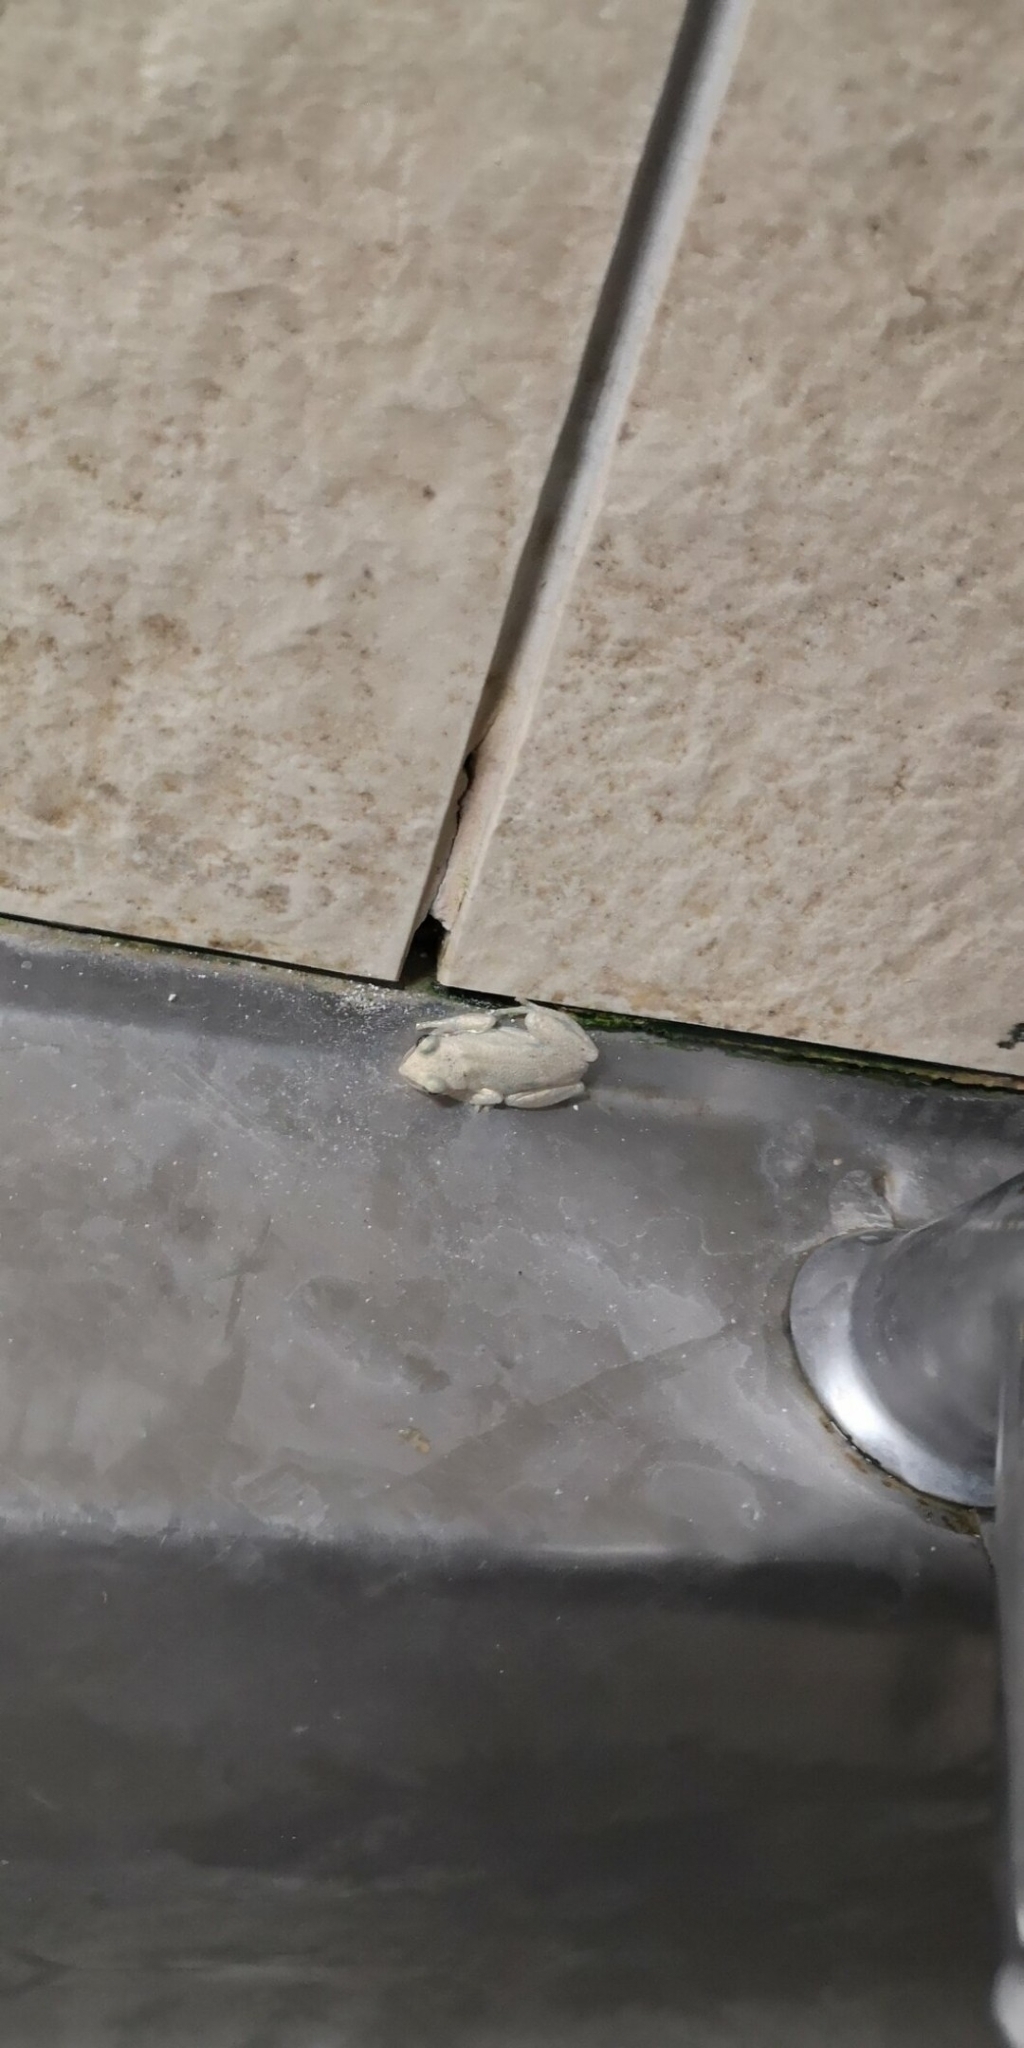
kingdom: Animalia
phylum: Chordata
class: Amphibia
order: Anura
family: Pelodryadidae
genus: Litoria
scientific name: Litoria rubella
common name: Desert tree frog
